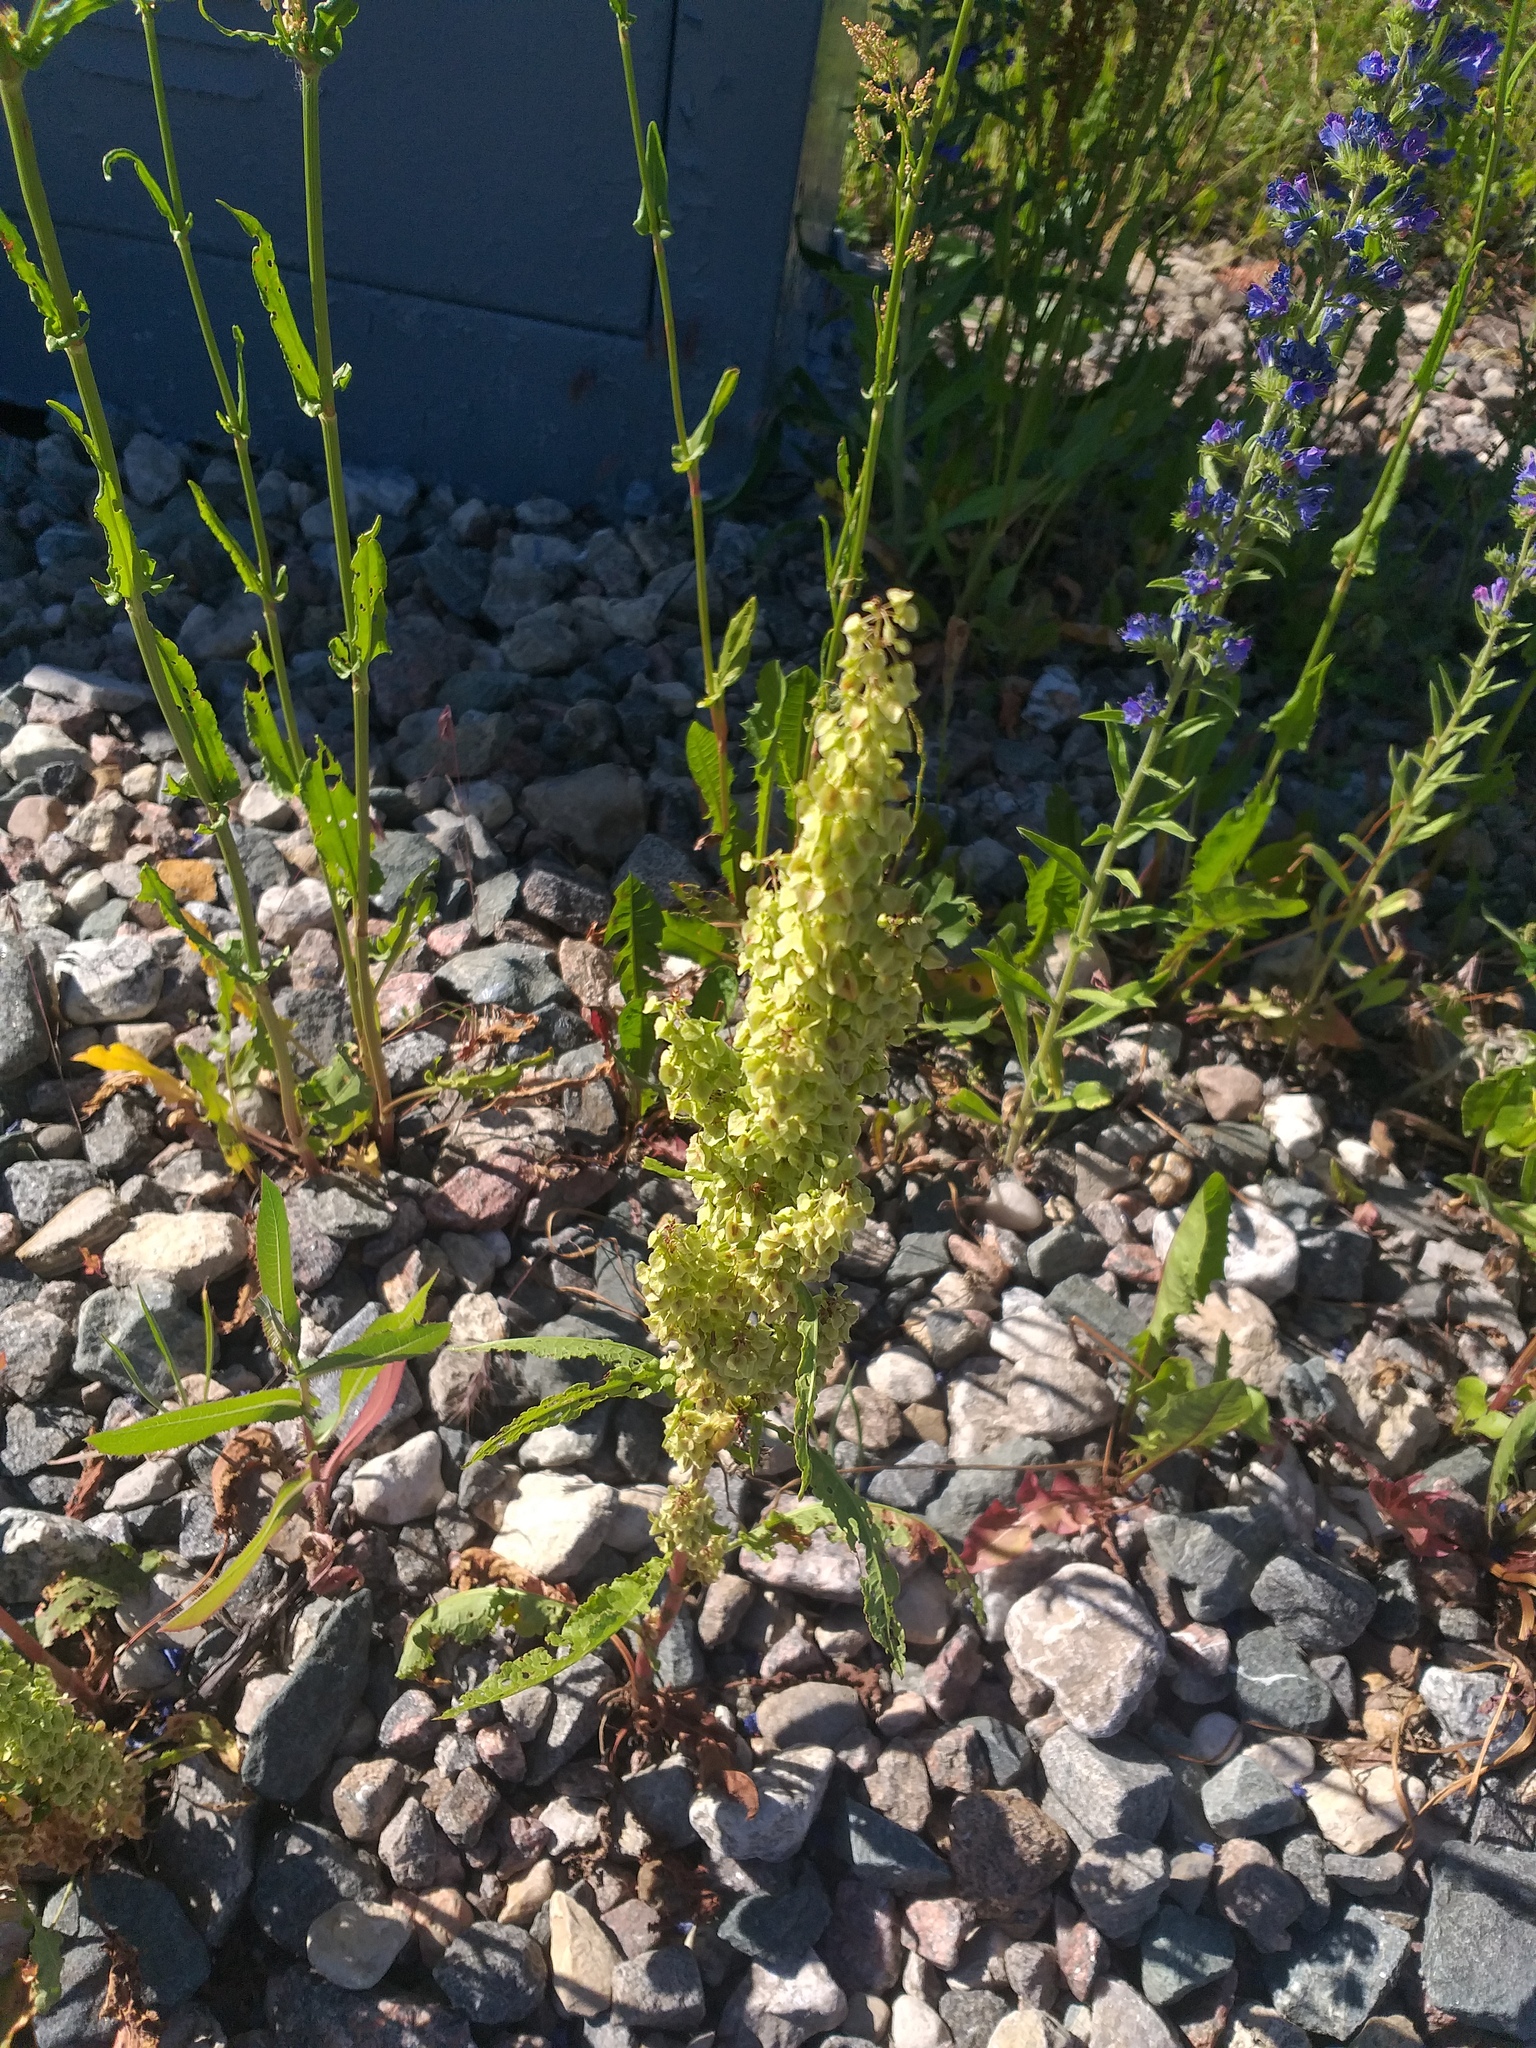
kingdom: Plantae
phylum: Tracheophyta
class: Magnoliopsida
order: Caryophyllales
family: Polygonaceae
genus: Rumex
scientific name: Rumex longifolius
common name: Dooryard dock
